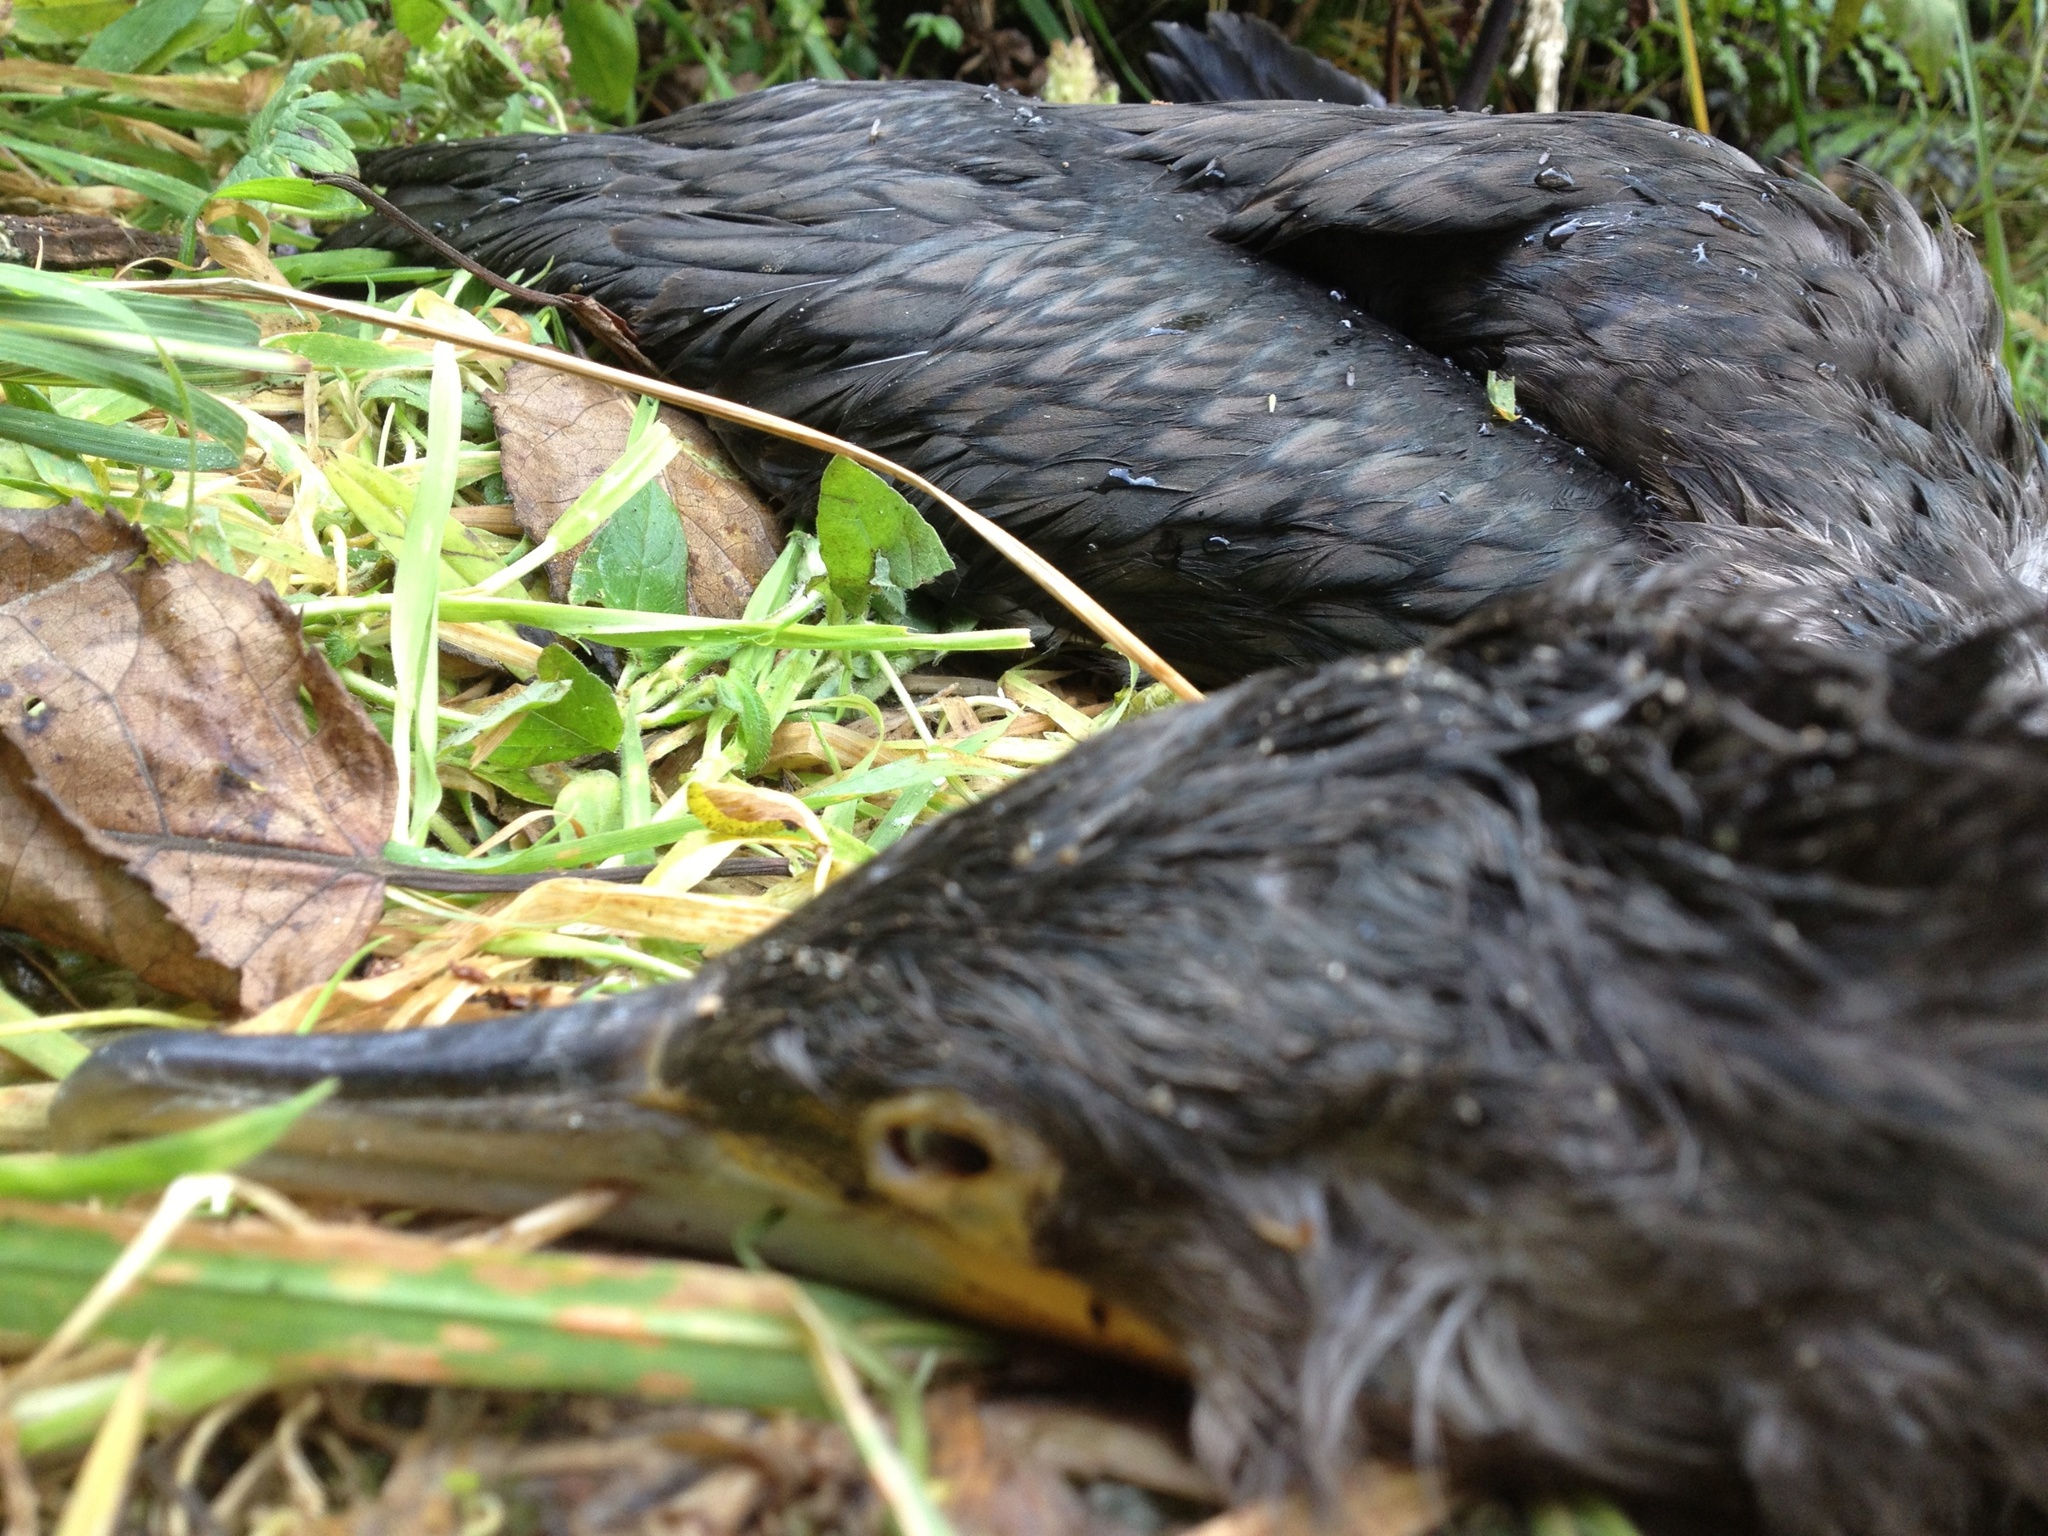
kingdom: Animalia
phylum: Chordata
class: Aves
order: Suliformes
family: Phalacrocoracidae
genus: Phalacrocorax
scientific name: Phalacrocorax carbo
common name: Great cormorant
